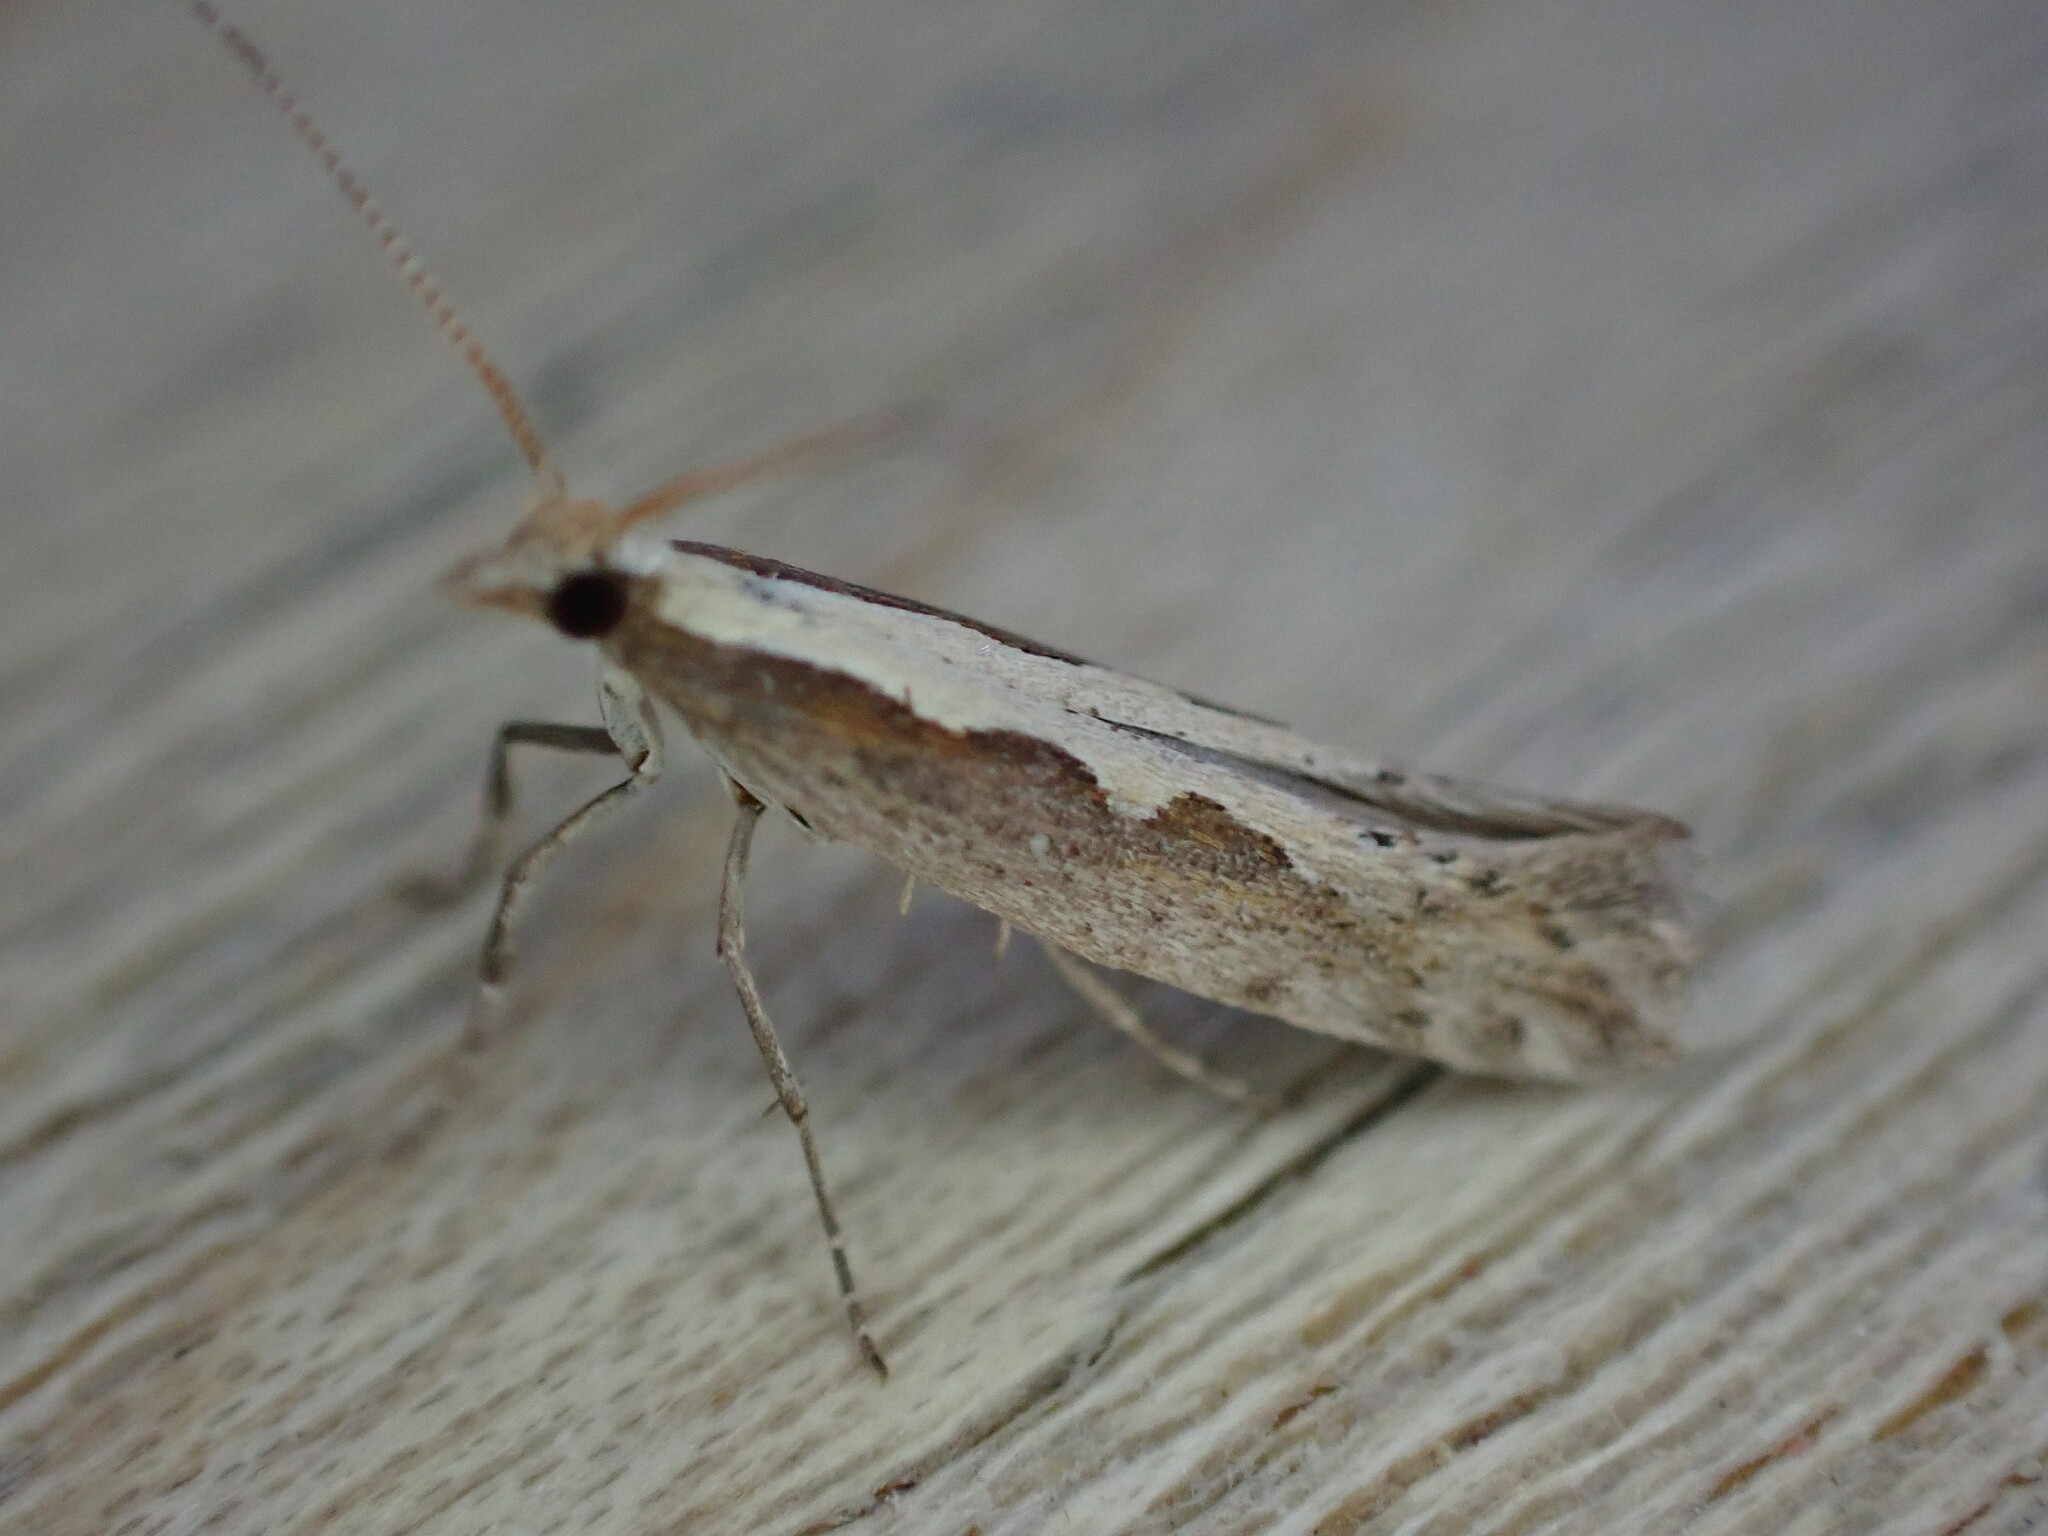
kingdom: Animalia
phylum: Arthropoda
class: Insecta
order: Lepidoptera
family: Plutellidae
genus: Plutella
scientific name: Plutella xylostella
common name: Diamond-back moth
